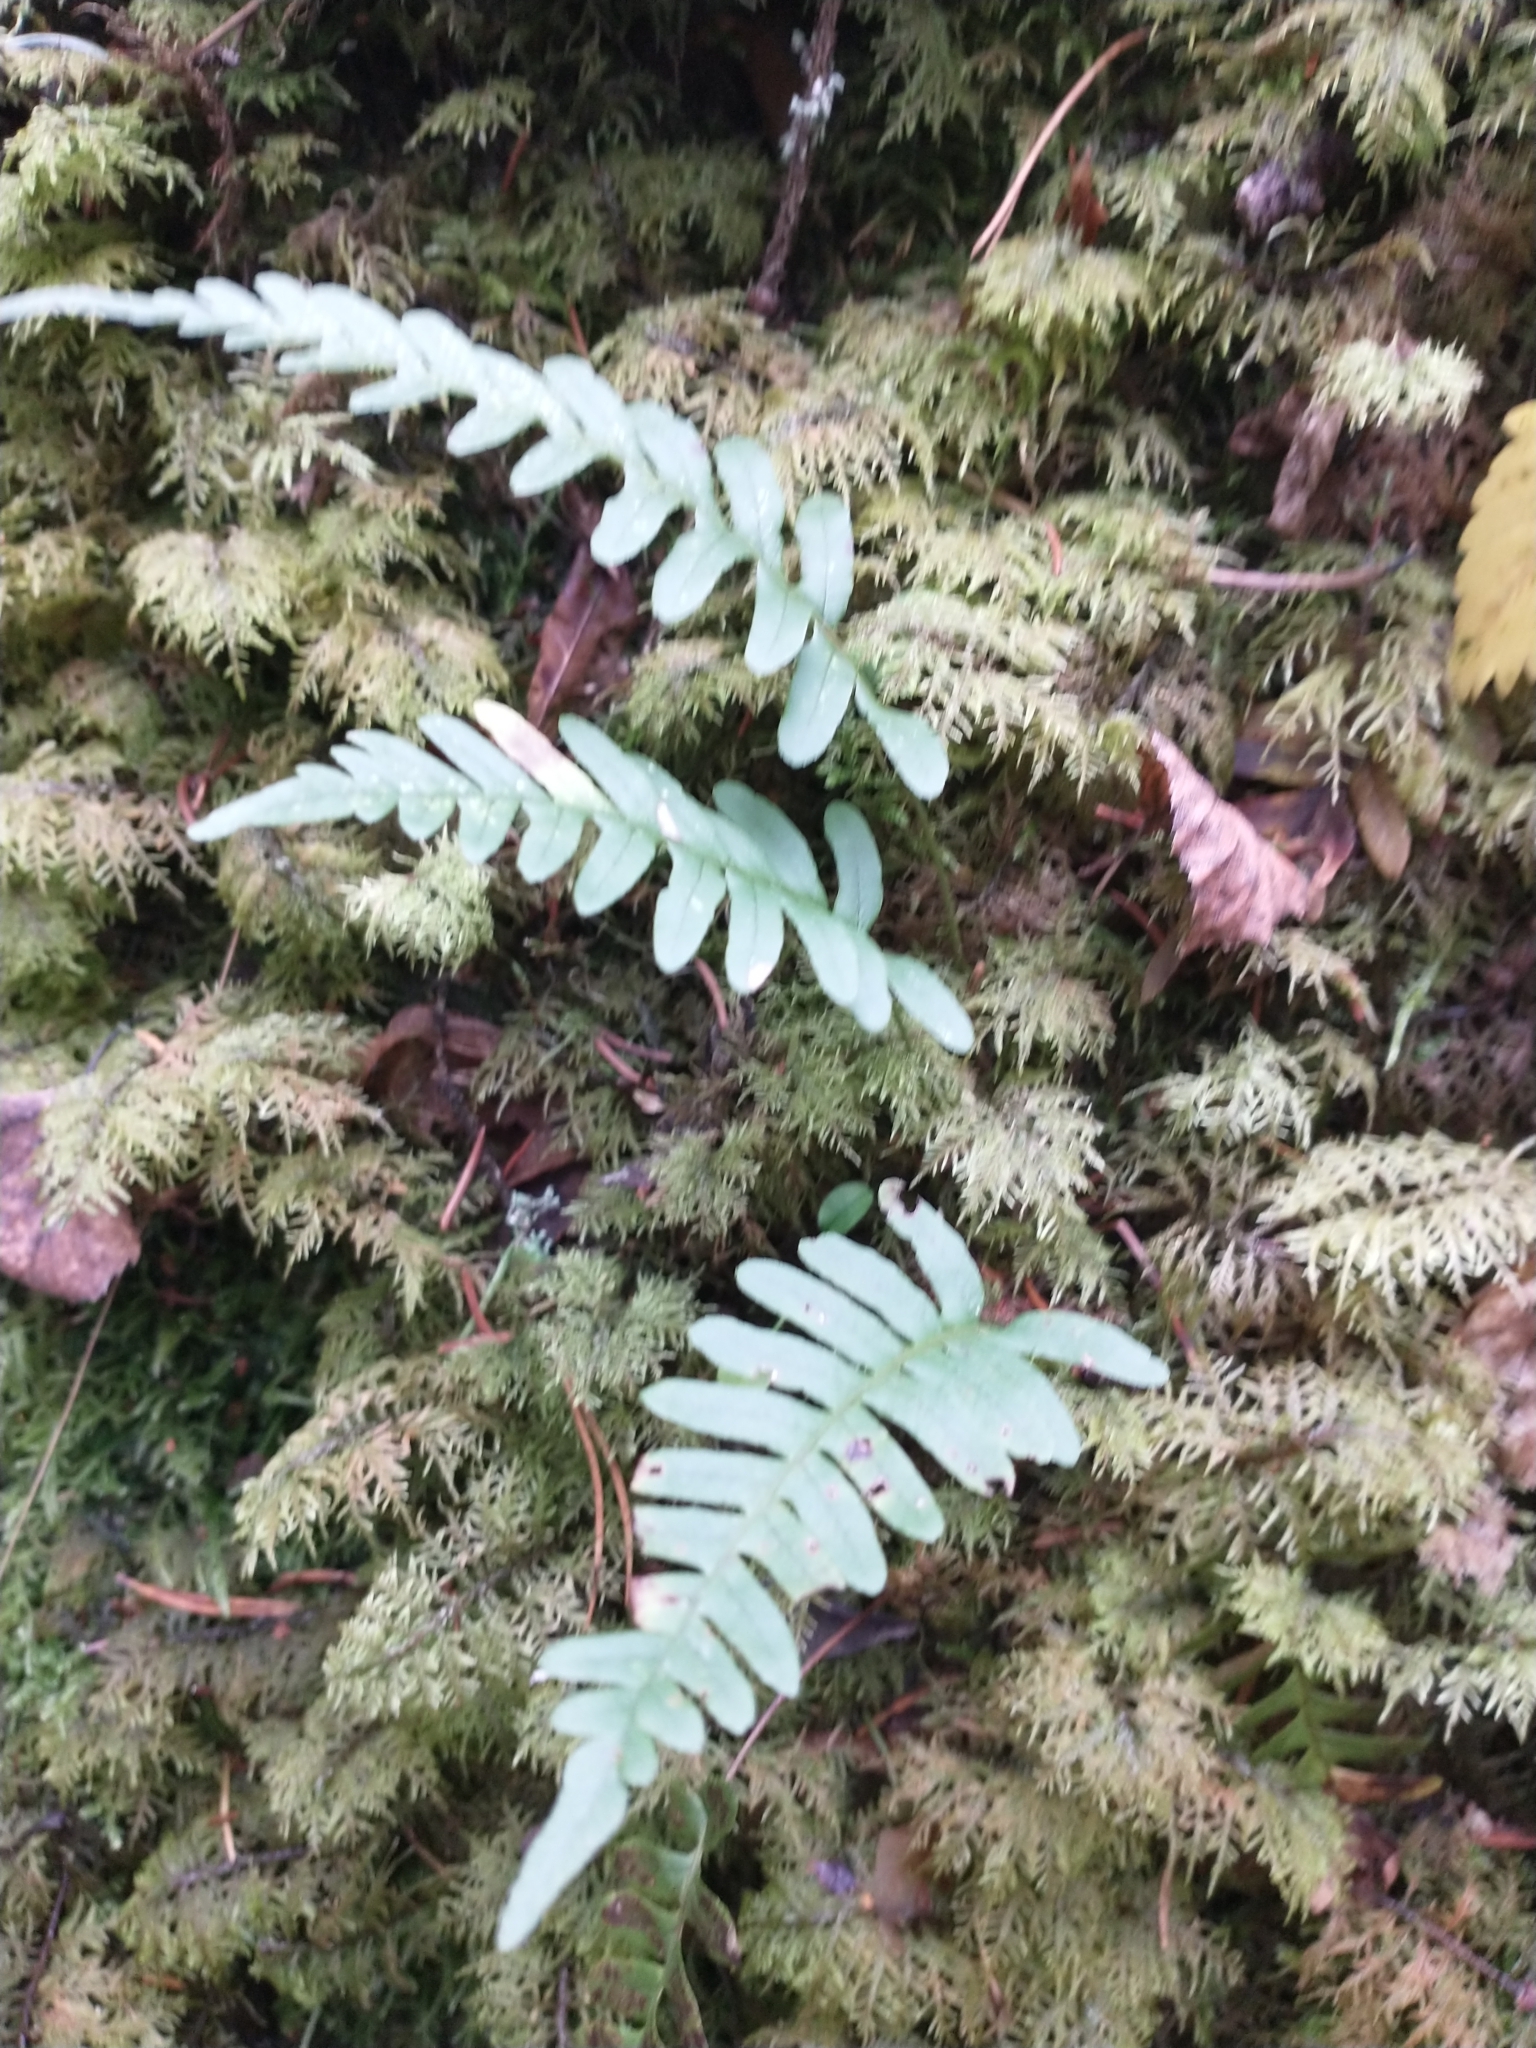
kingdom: Plantae
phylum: Tracheophyta
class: Polypodiopsida
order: Polypodiales
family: Polypodiaceae
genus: Polypodium
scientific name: Polypodium vulgare
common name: Common polypody
